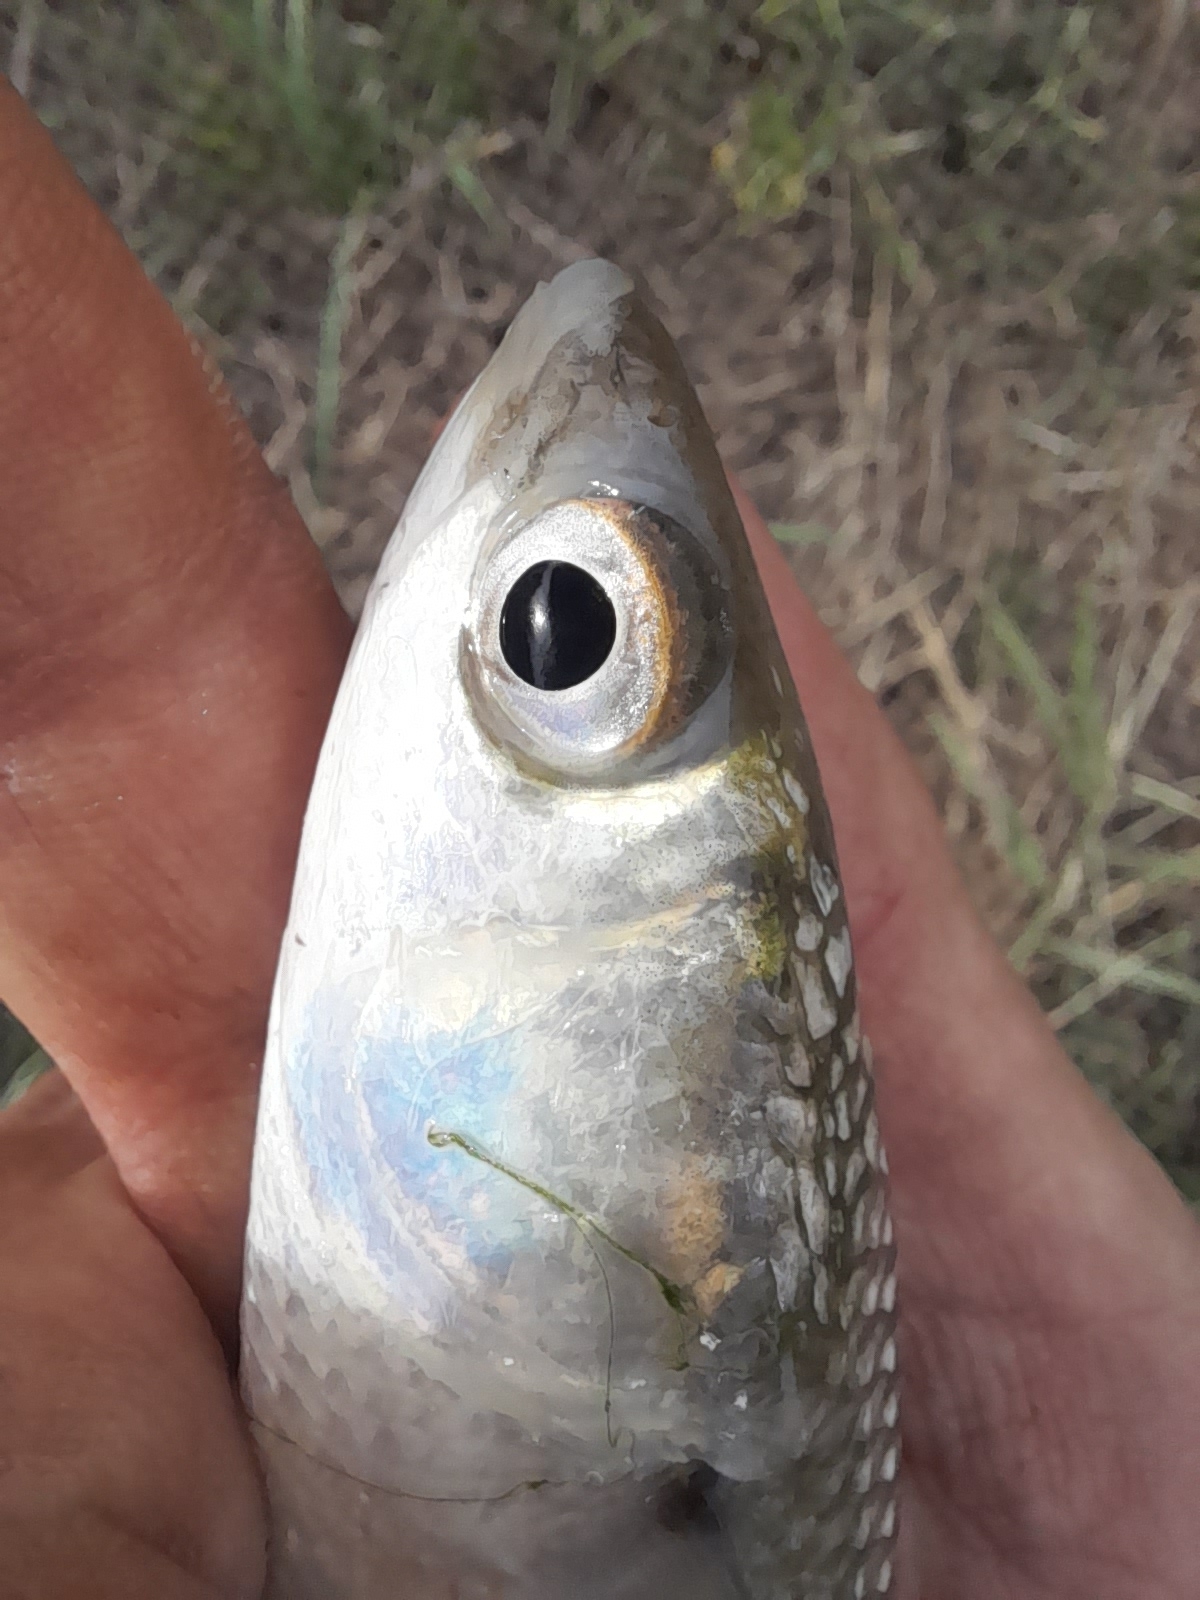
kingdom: Animalia
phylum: Chordata
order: Mugiliformes
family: Mugilidae
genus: Chelon
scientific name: Chelon ramada
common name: Thinlip grey mullet
